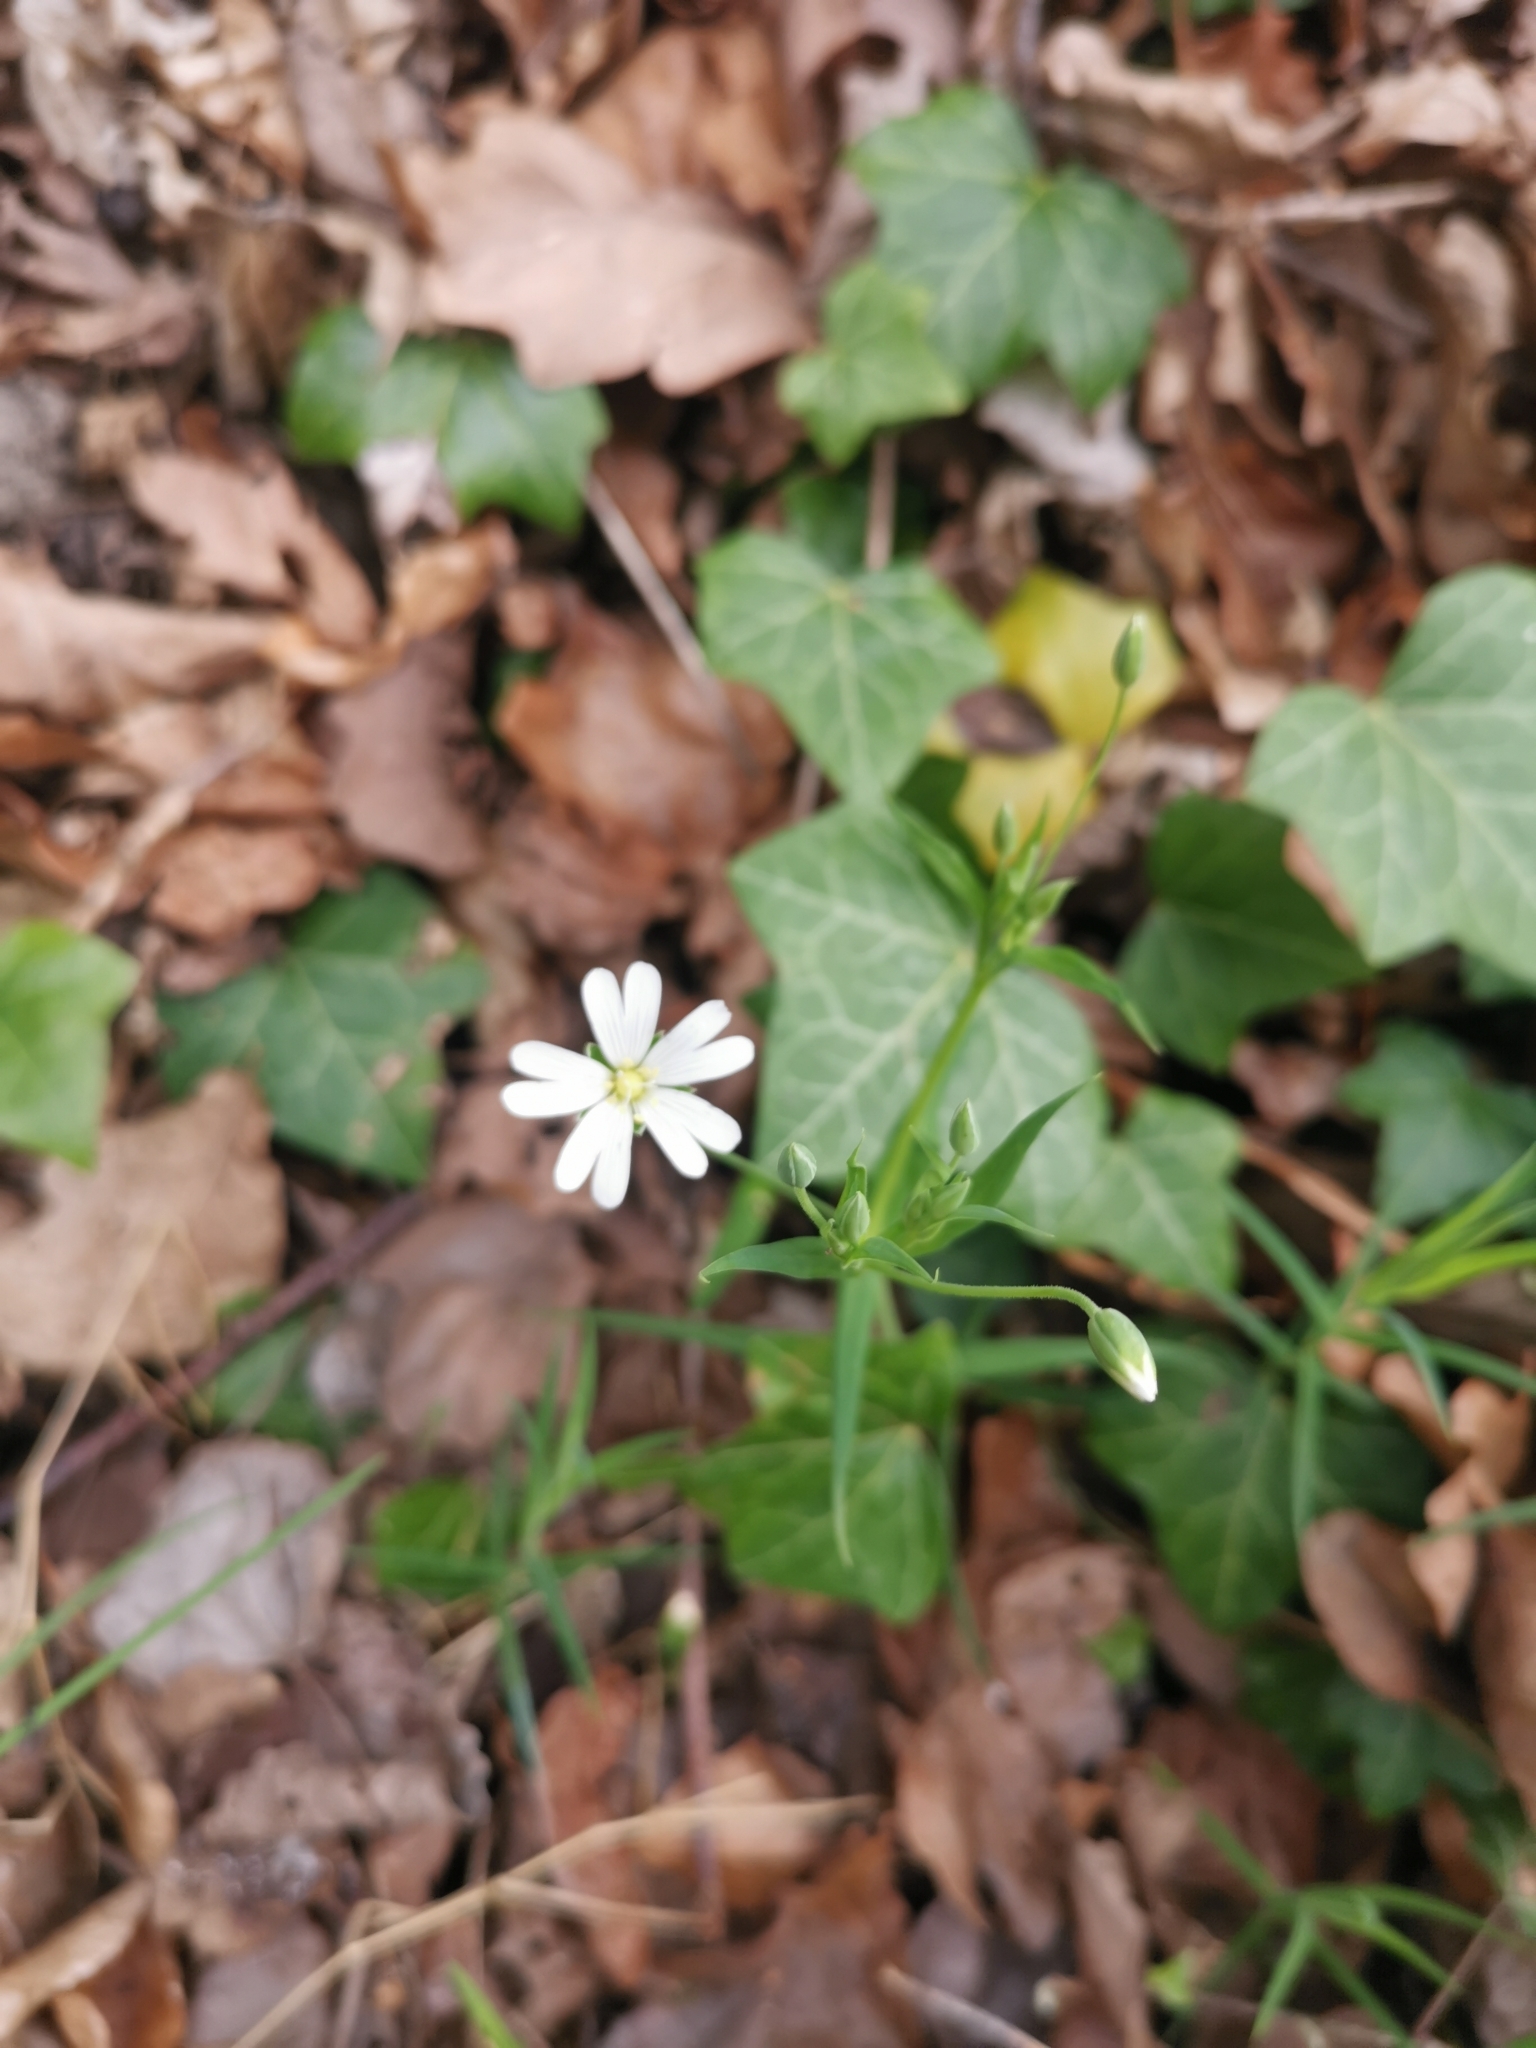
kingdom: Plantae
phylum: Tracheophyta
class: Magnoliopsida
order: Caryophyllales
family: Caryophyllaceae
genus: Rabelera
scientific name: Rabelera holostea
